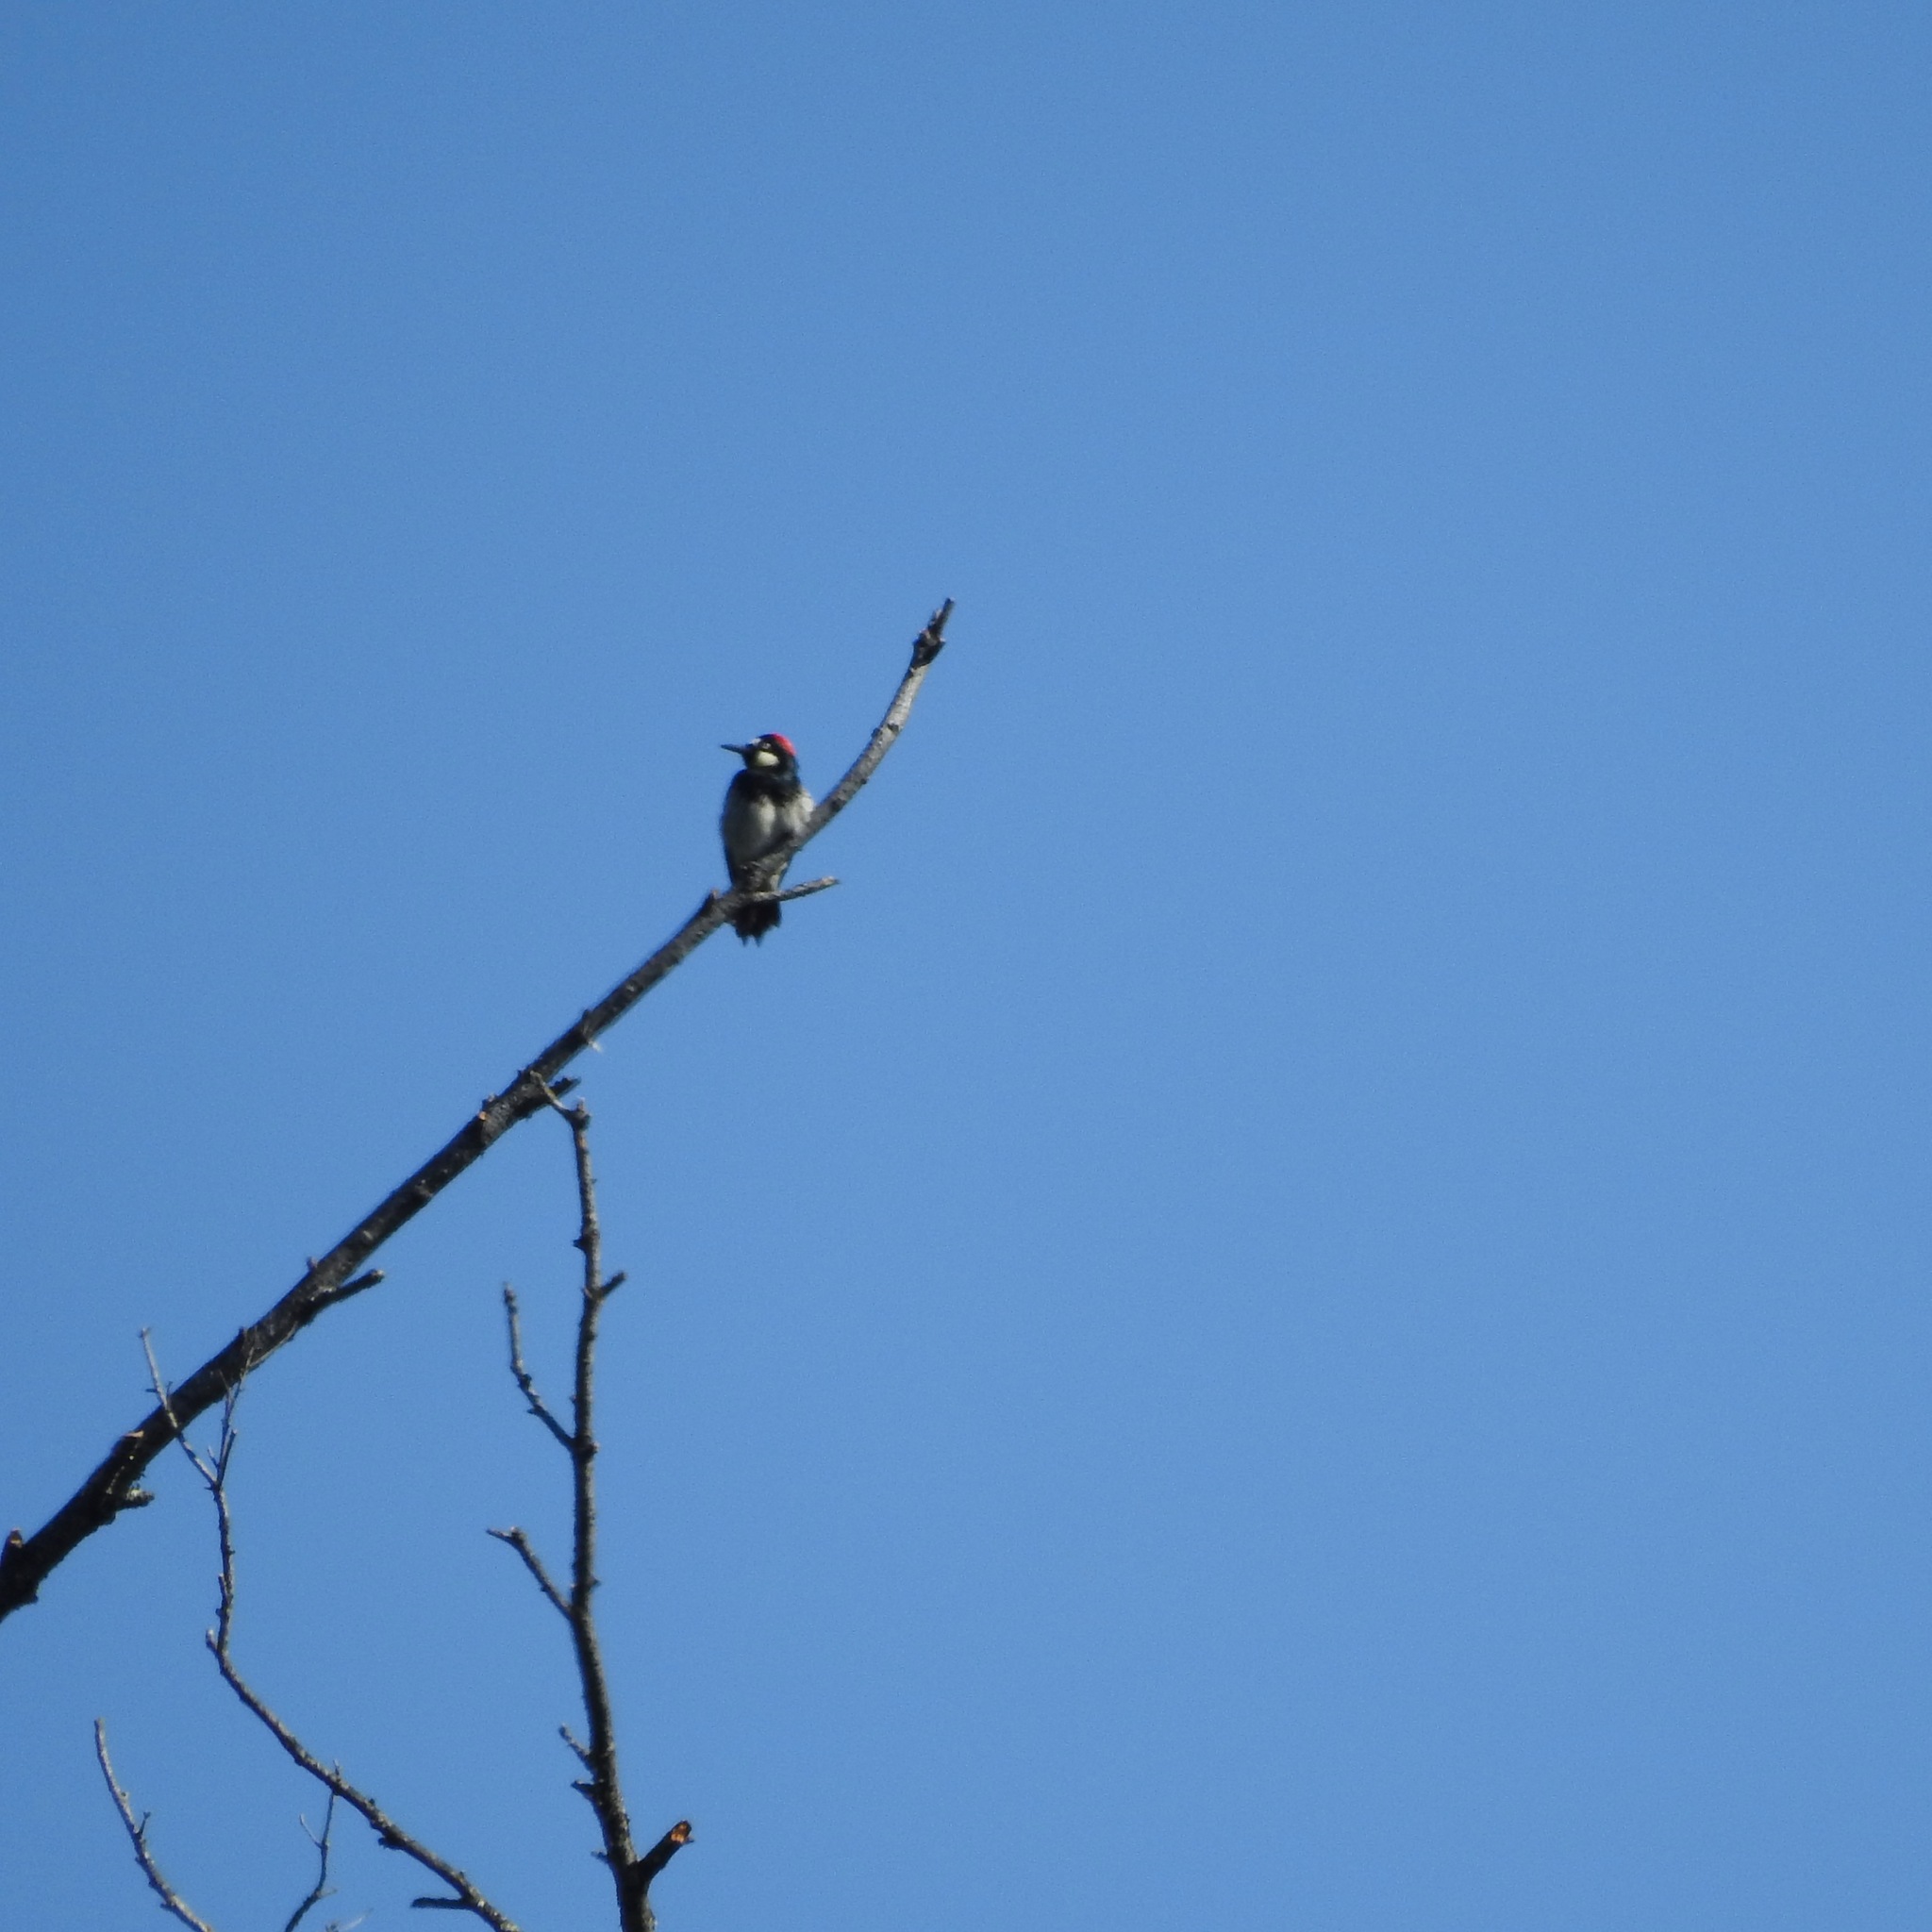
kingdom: Animalia
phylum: Chordata
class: Aves
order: Piciformes
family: Picidae
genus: Melanerpes
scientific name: Melanerpes formicivorus
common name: Acorn woodpecker
